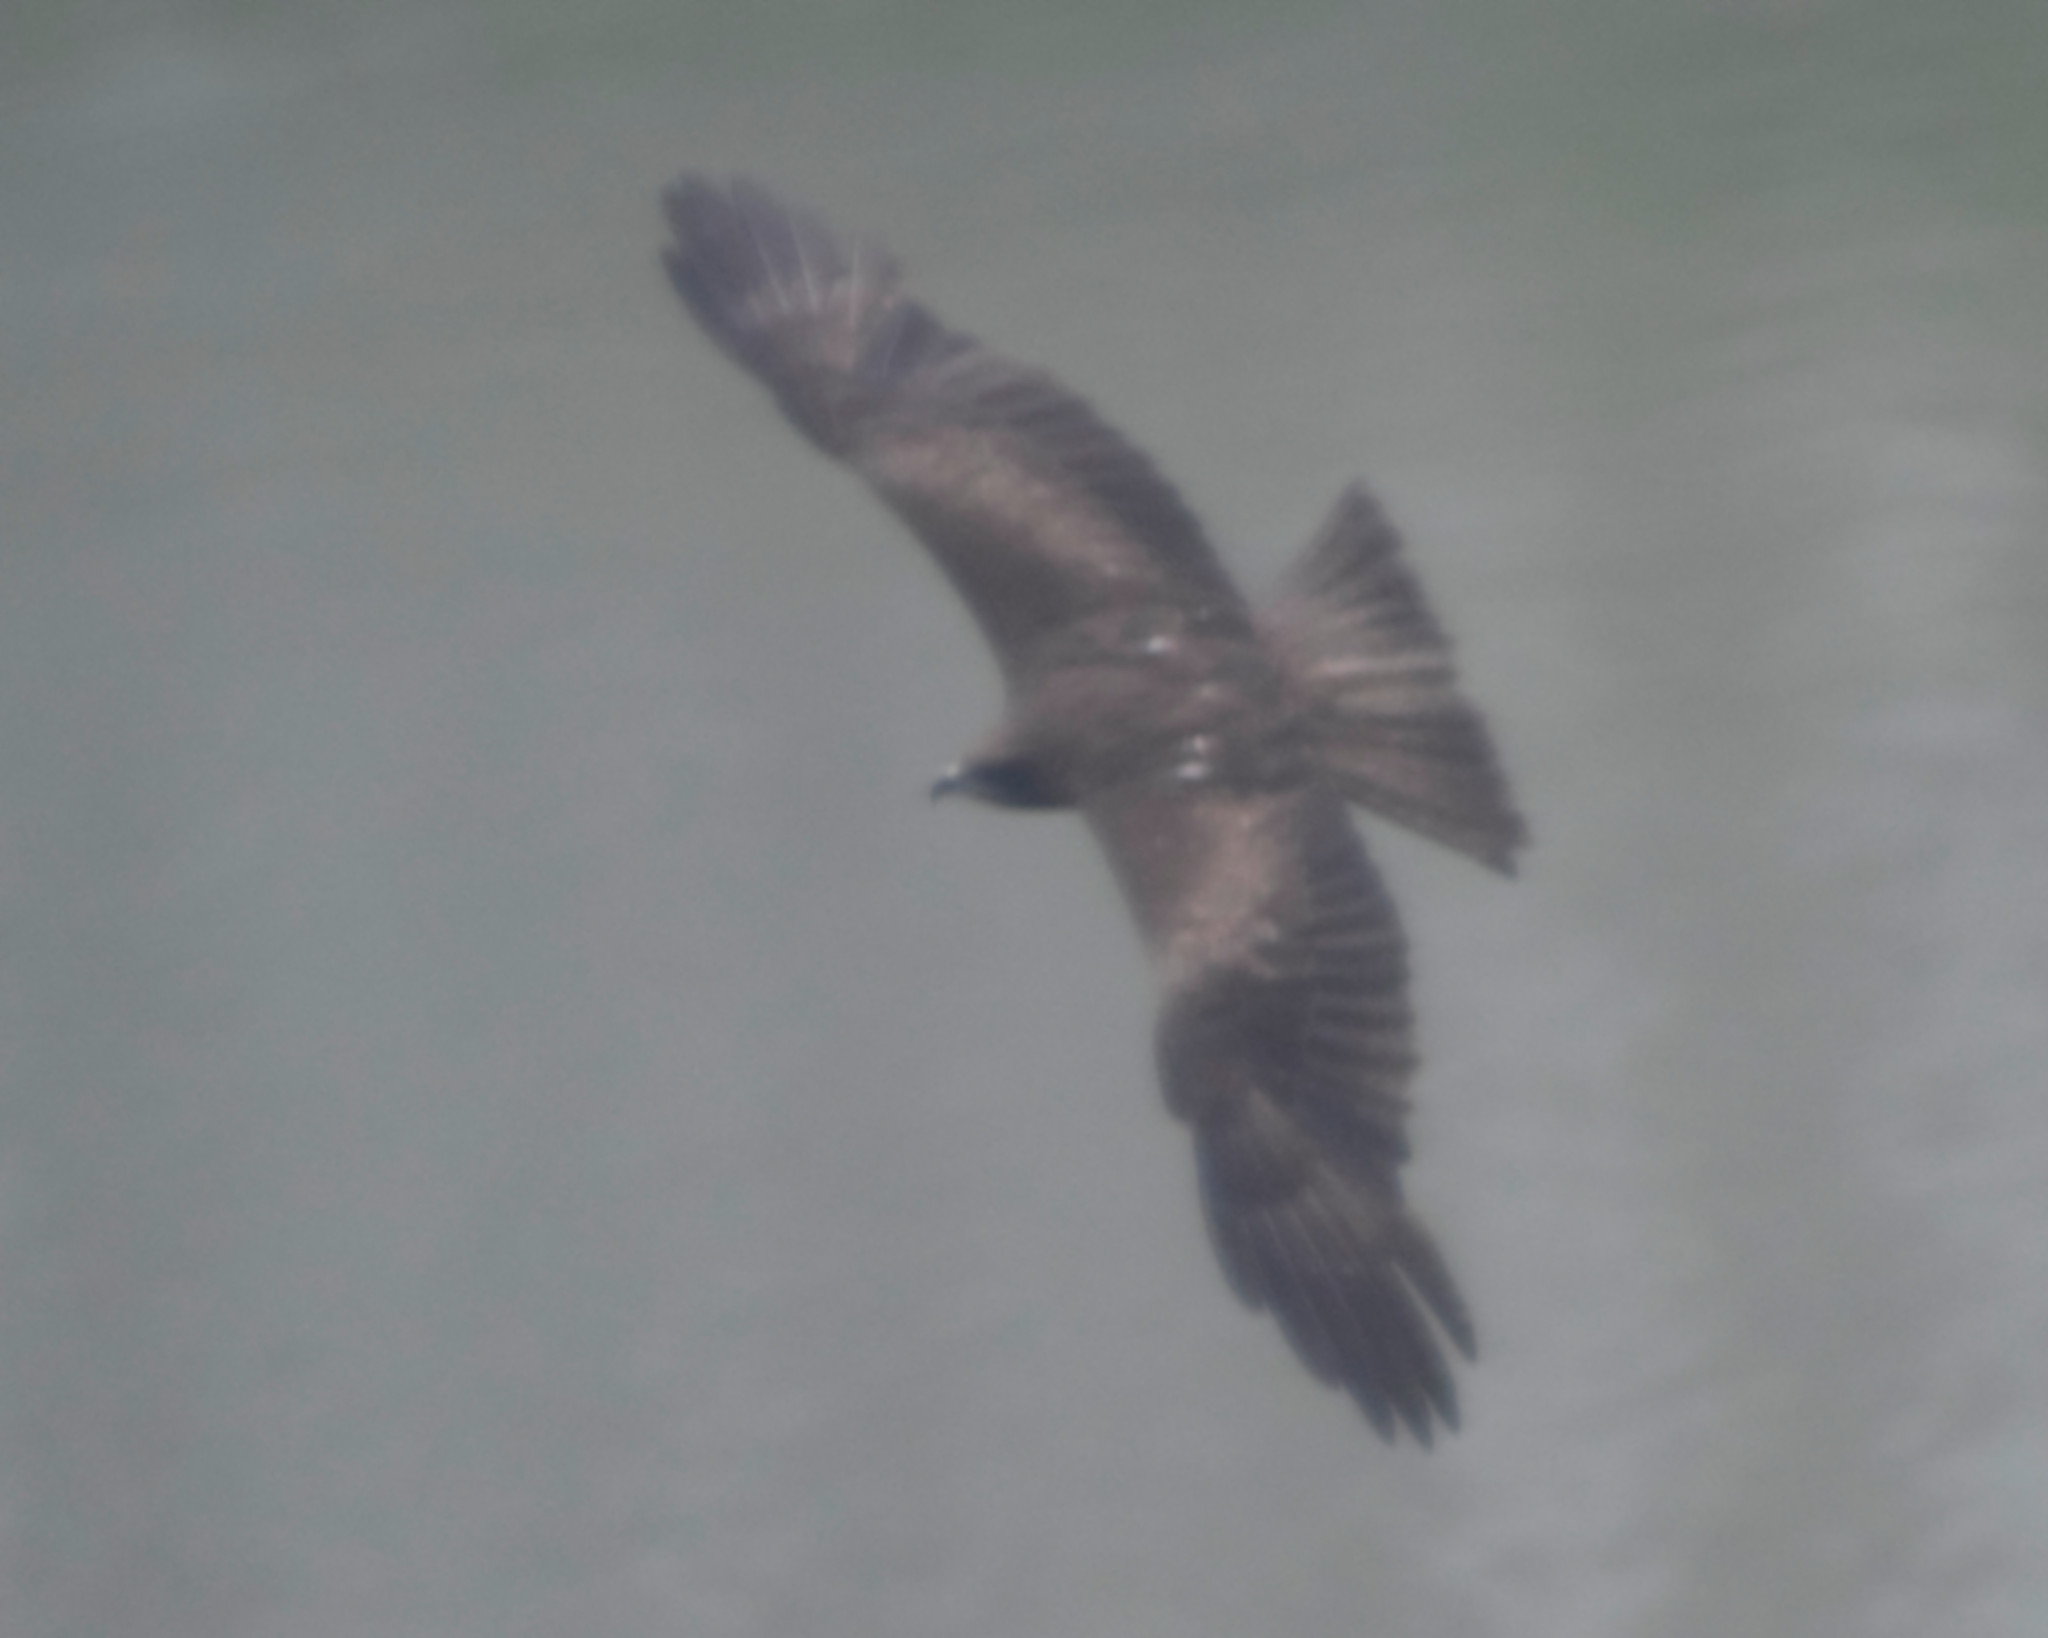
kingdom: Animalia
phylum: Chordata
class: Aves
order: Accipitriformes
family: Accipitridae
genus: Milvus
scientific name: Milvus migrans
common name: Black kite
